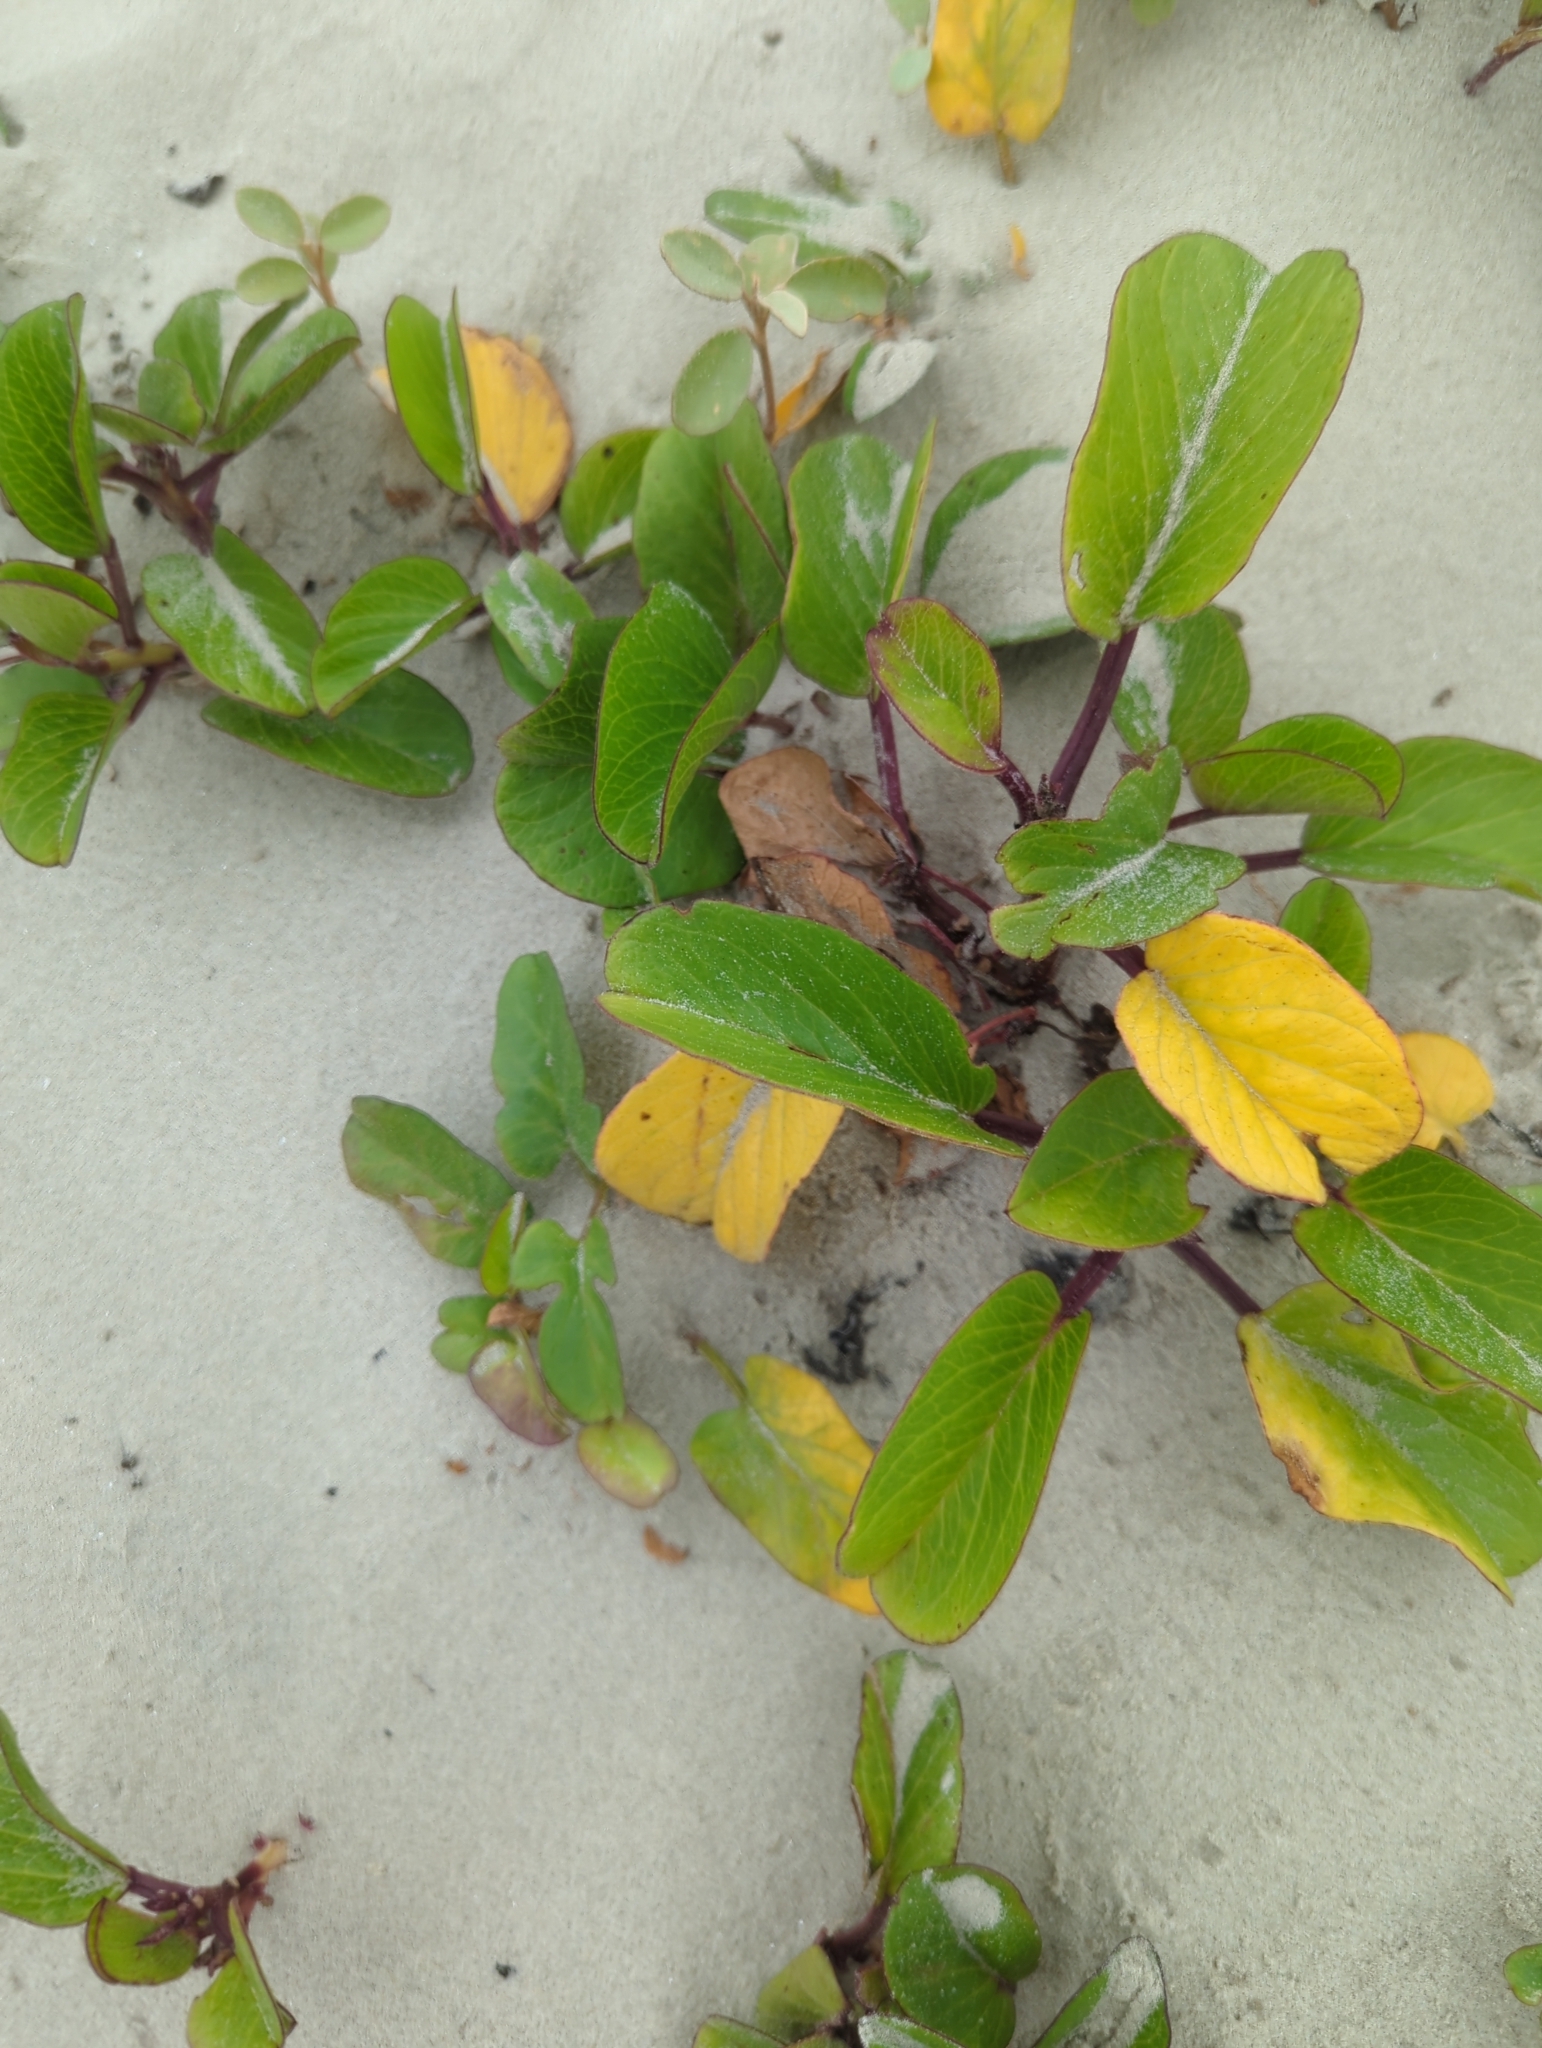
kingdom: Plantae
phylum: Tracheophyta
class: Magnoliopsida
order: Solanales
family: Convolvulaceae
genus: Ipomoea
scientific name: Ipomoea pes-caprae
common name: Beach morning glory
